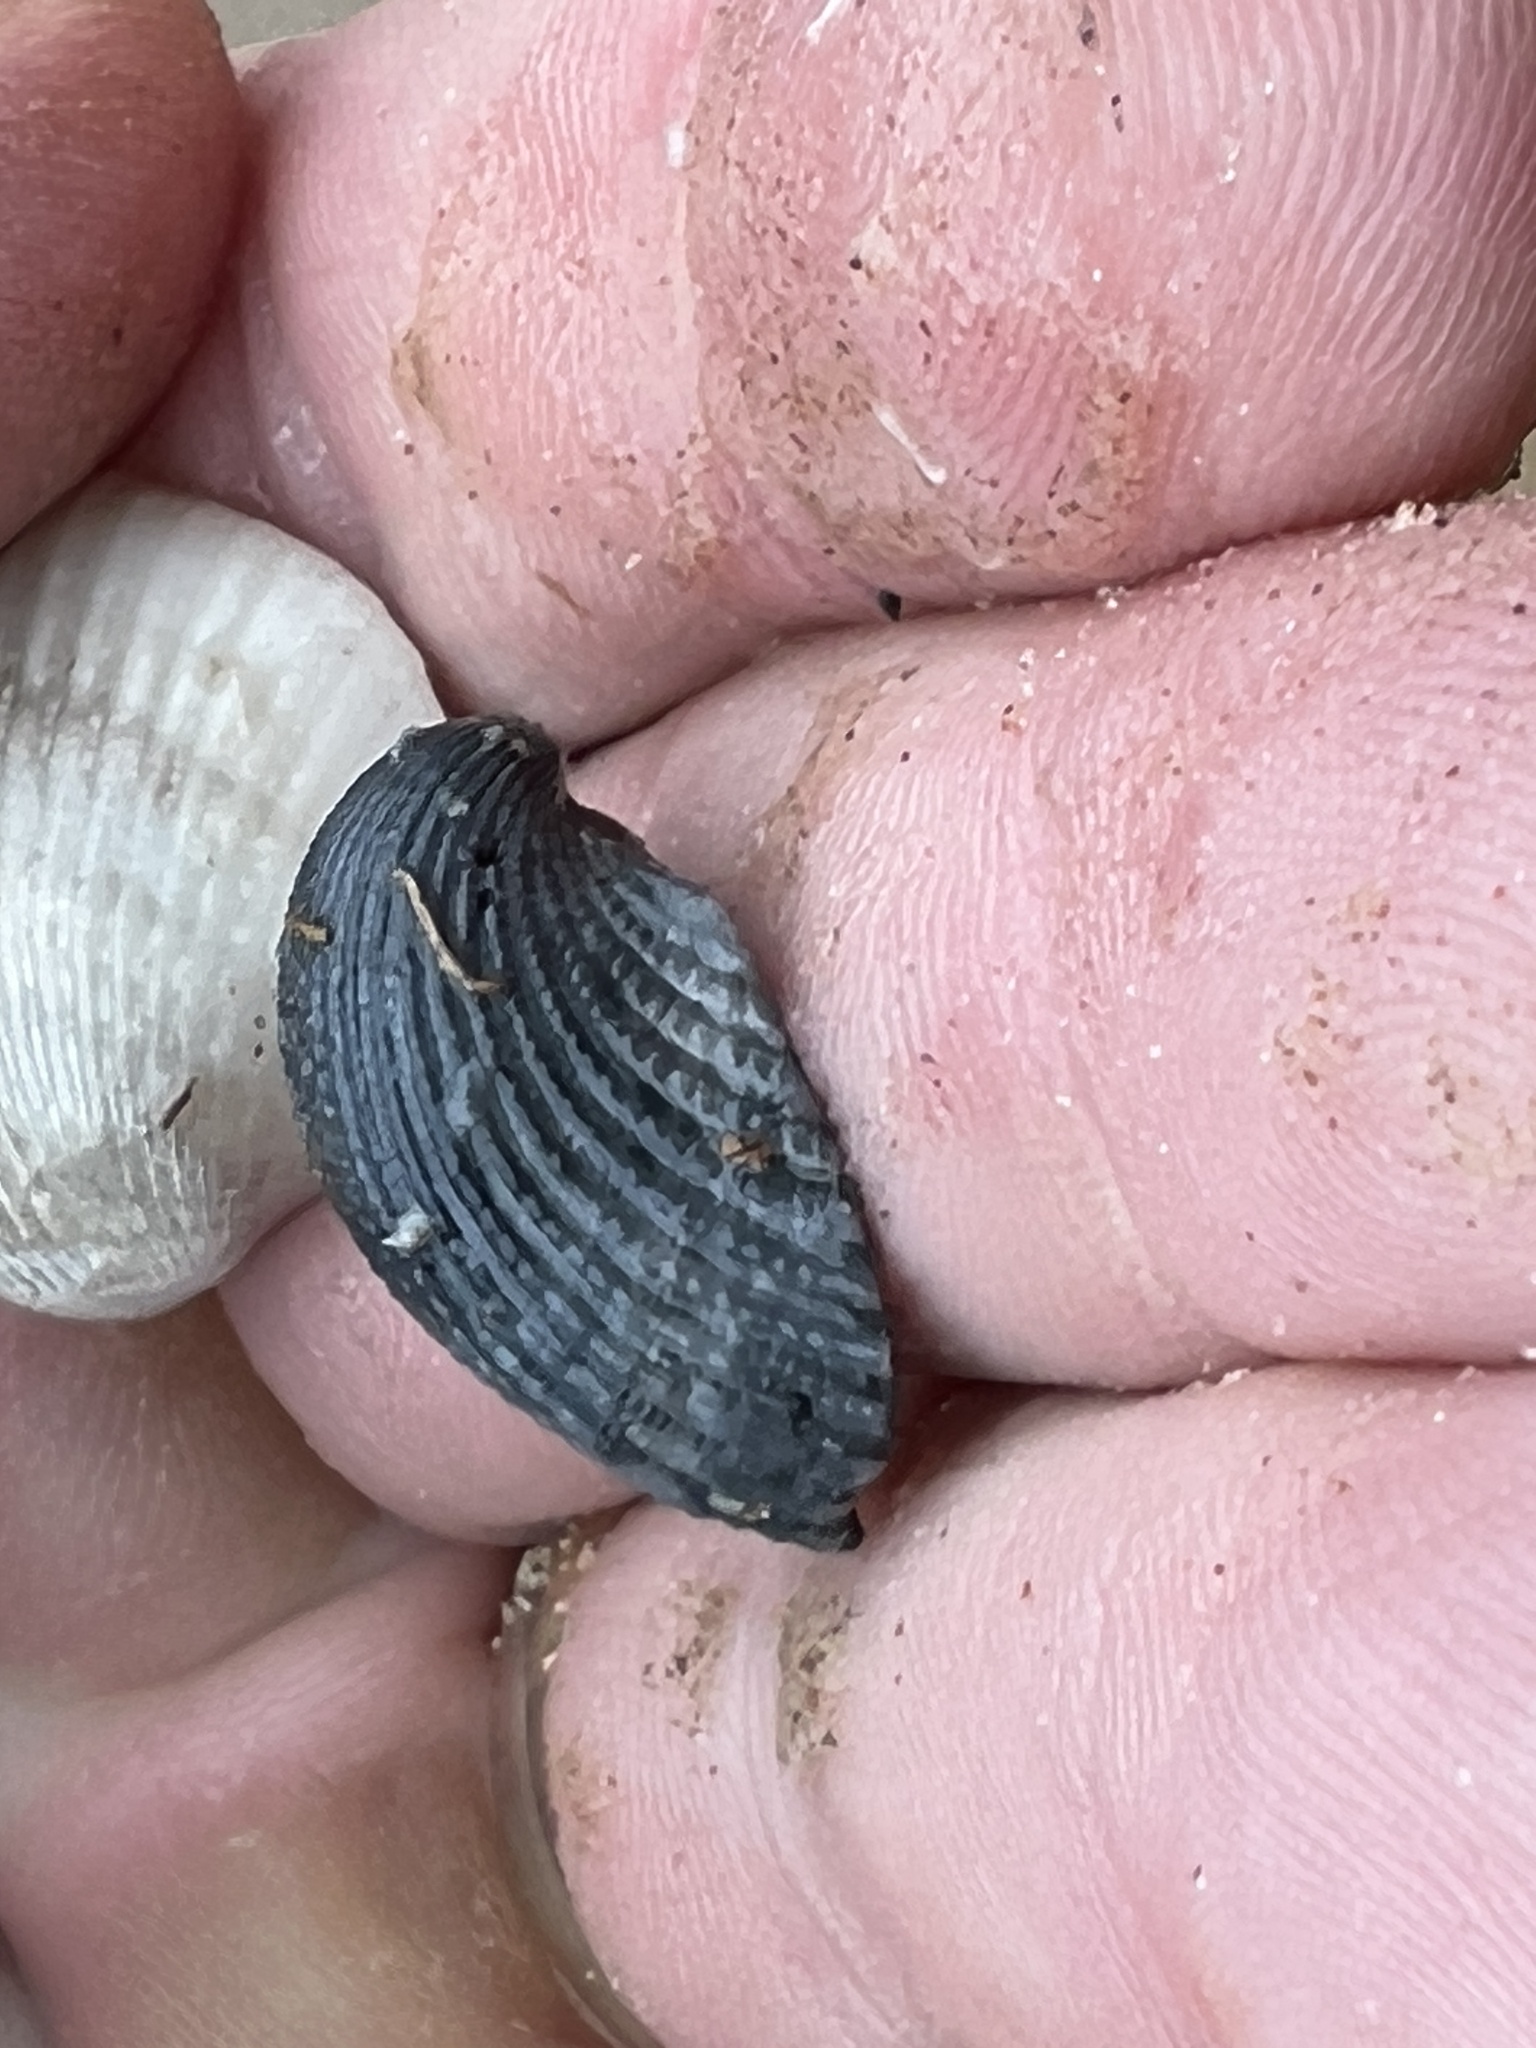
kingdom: Animalia
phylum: Mollusca
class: Bivalvia
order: Arcida
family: Arcidae
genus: Anadara
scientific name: Anadara chemnitzii
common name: Chemnitz's triangular ark
